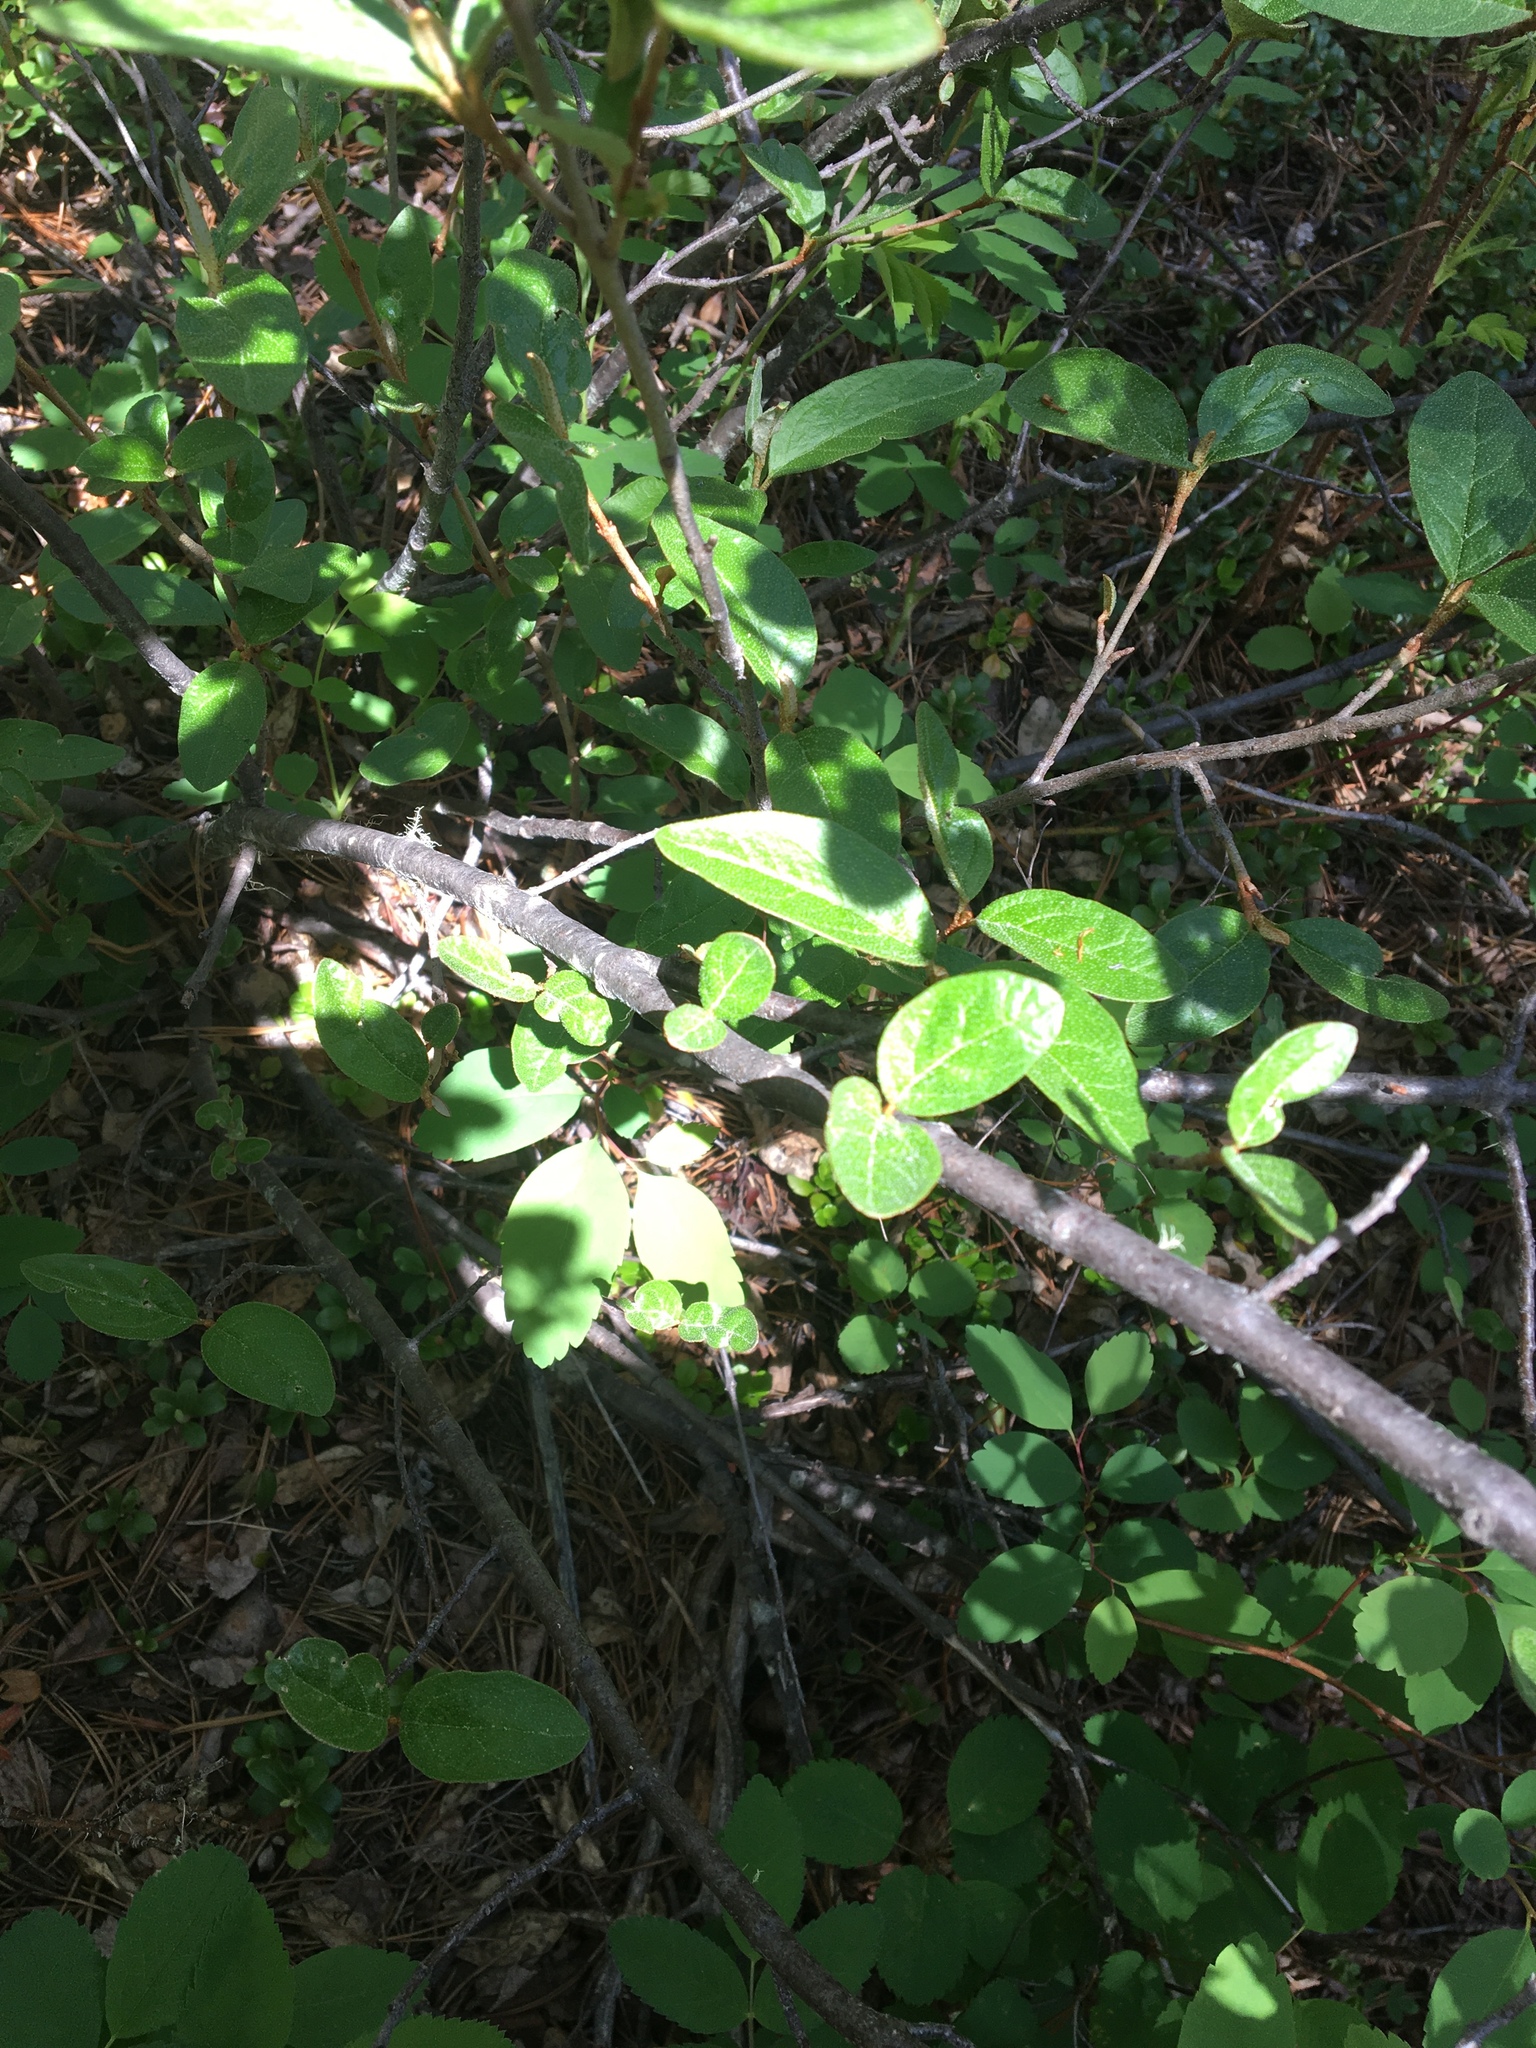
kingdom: Plantae
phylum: Tracheophyta
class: Magnoliopsida
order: Rosales
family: Rosaceae
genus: Amelanchier
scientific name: Amelanchier alnifolia
